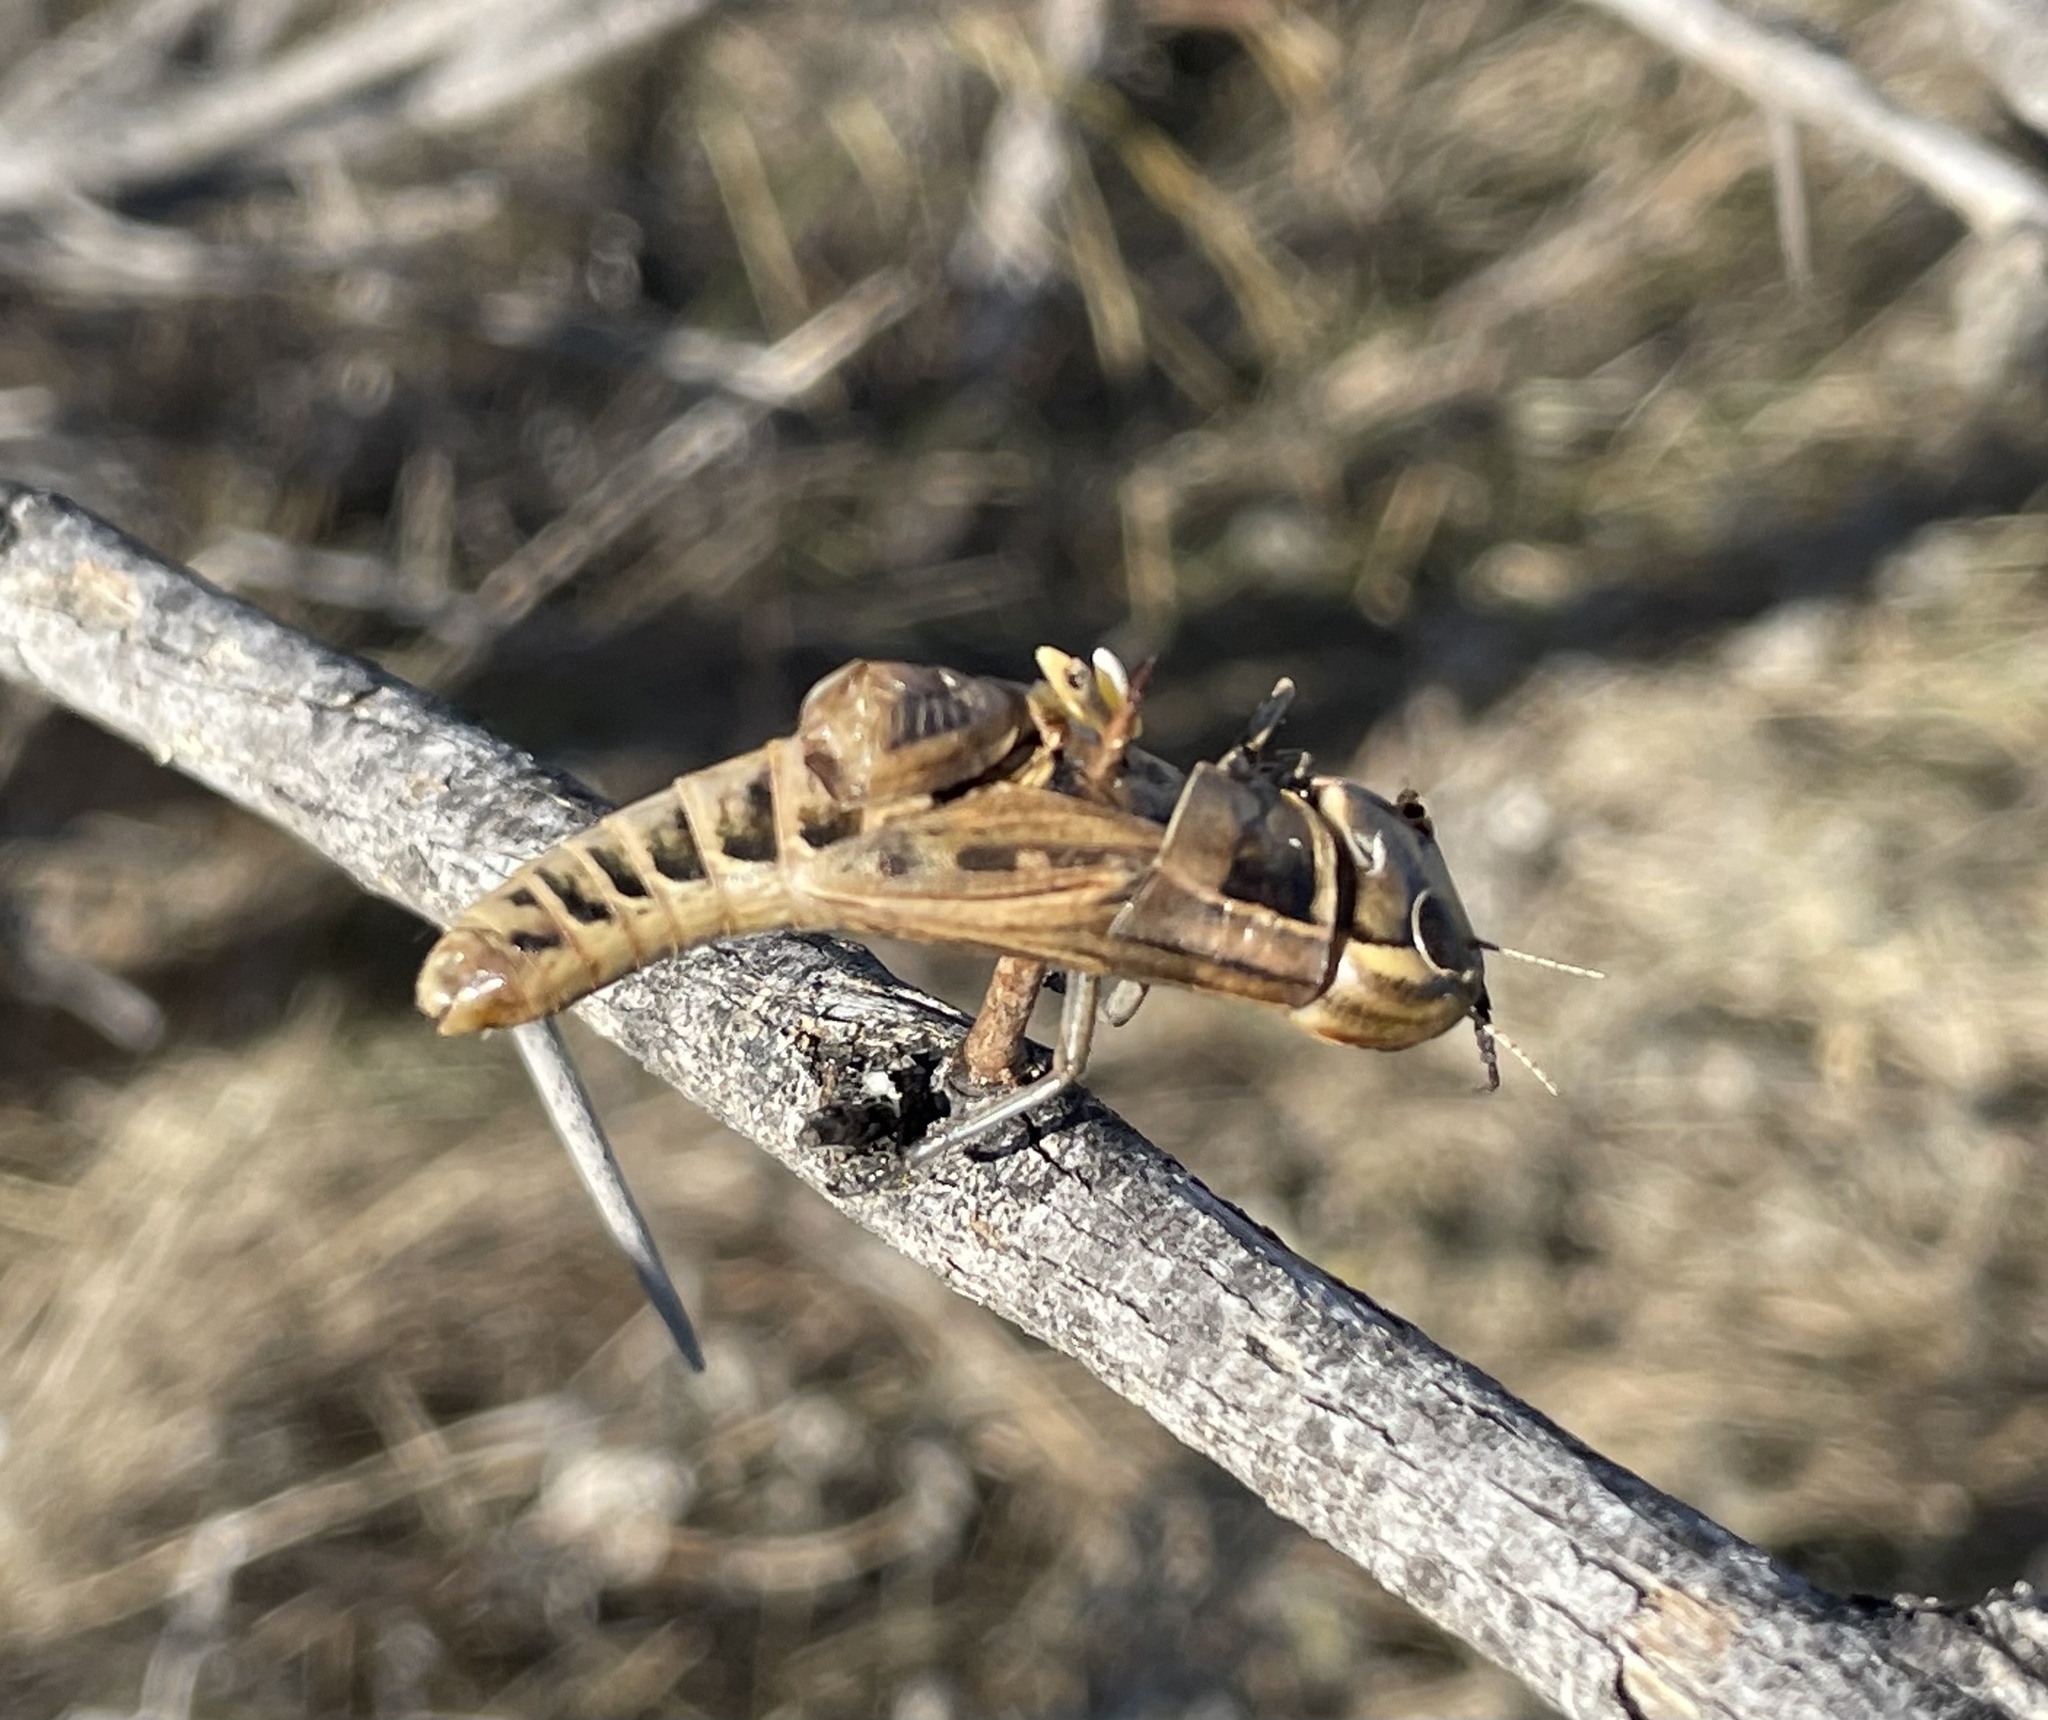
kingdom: Animalia
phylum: Chordata
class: Aves
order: Passeriformes
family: Laniidae
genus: Lanius
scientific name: Lanius ludovicianus
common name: Loggerhead shrike
